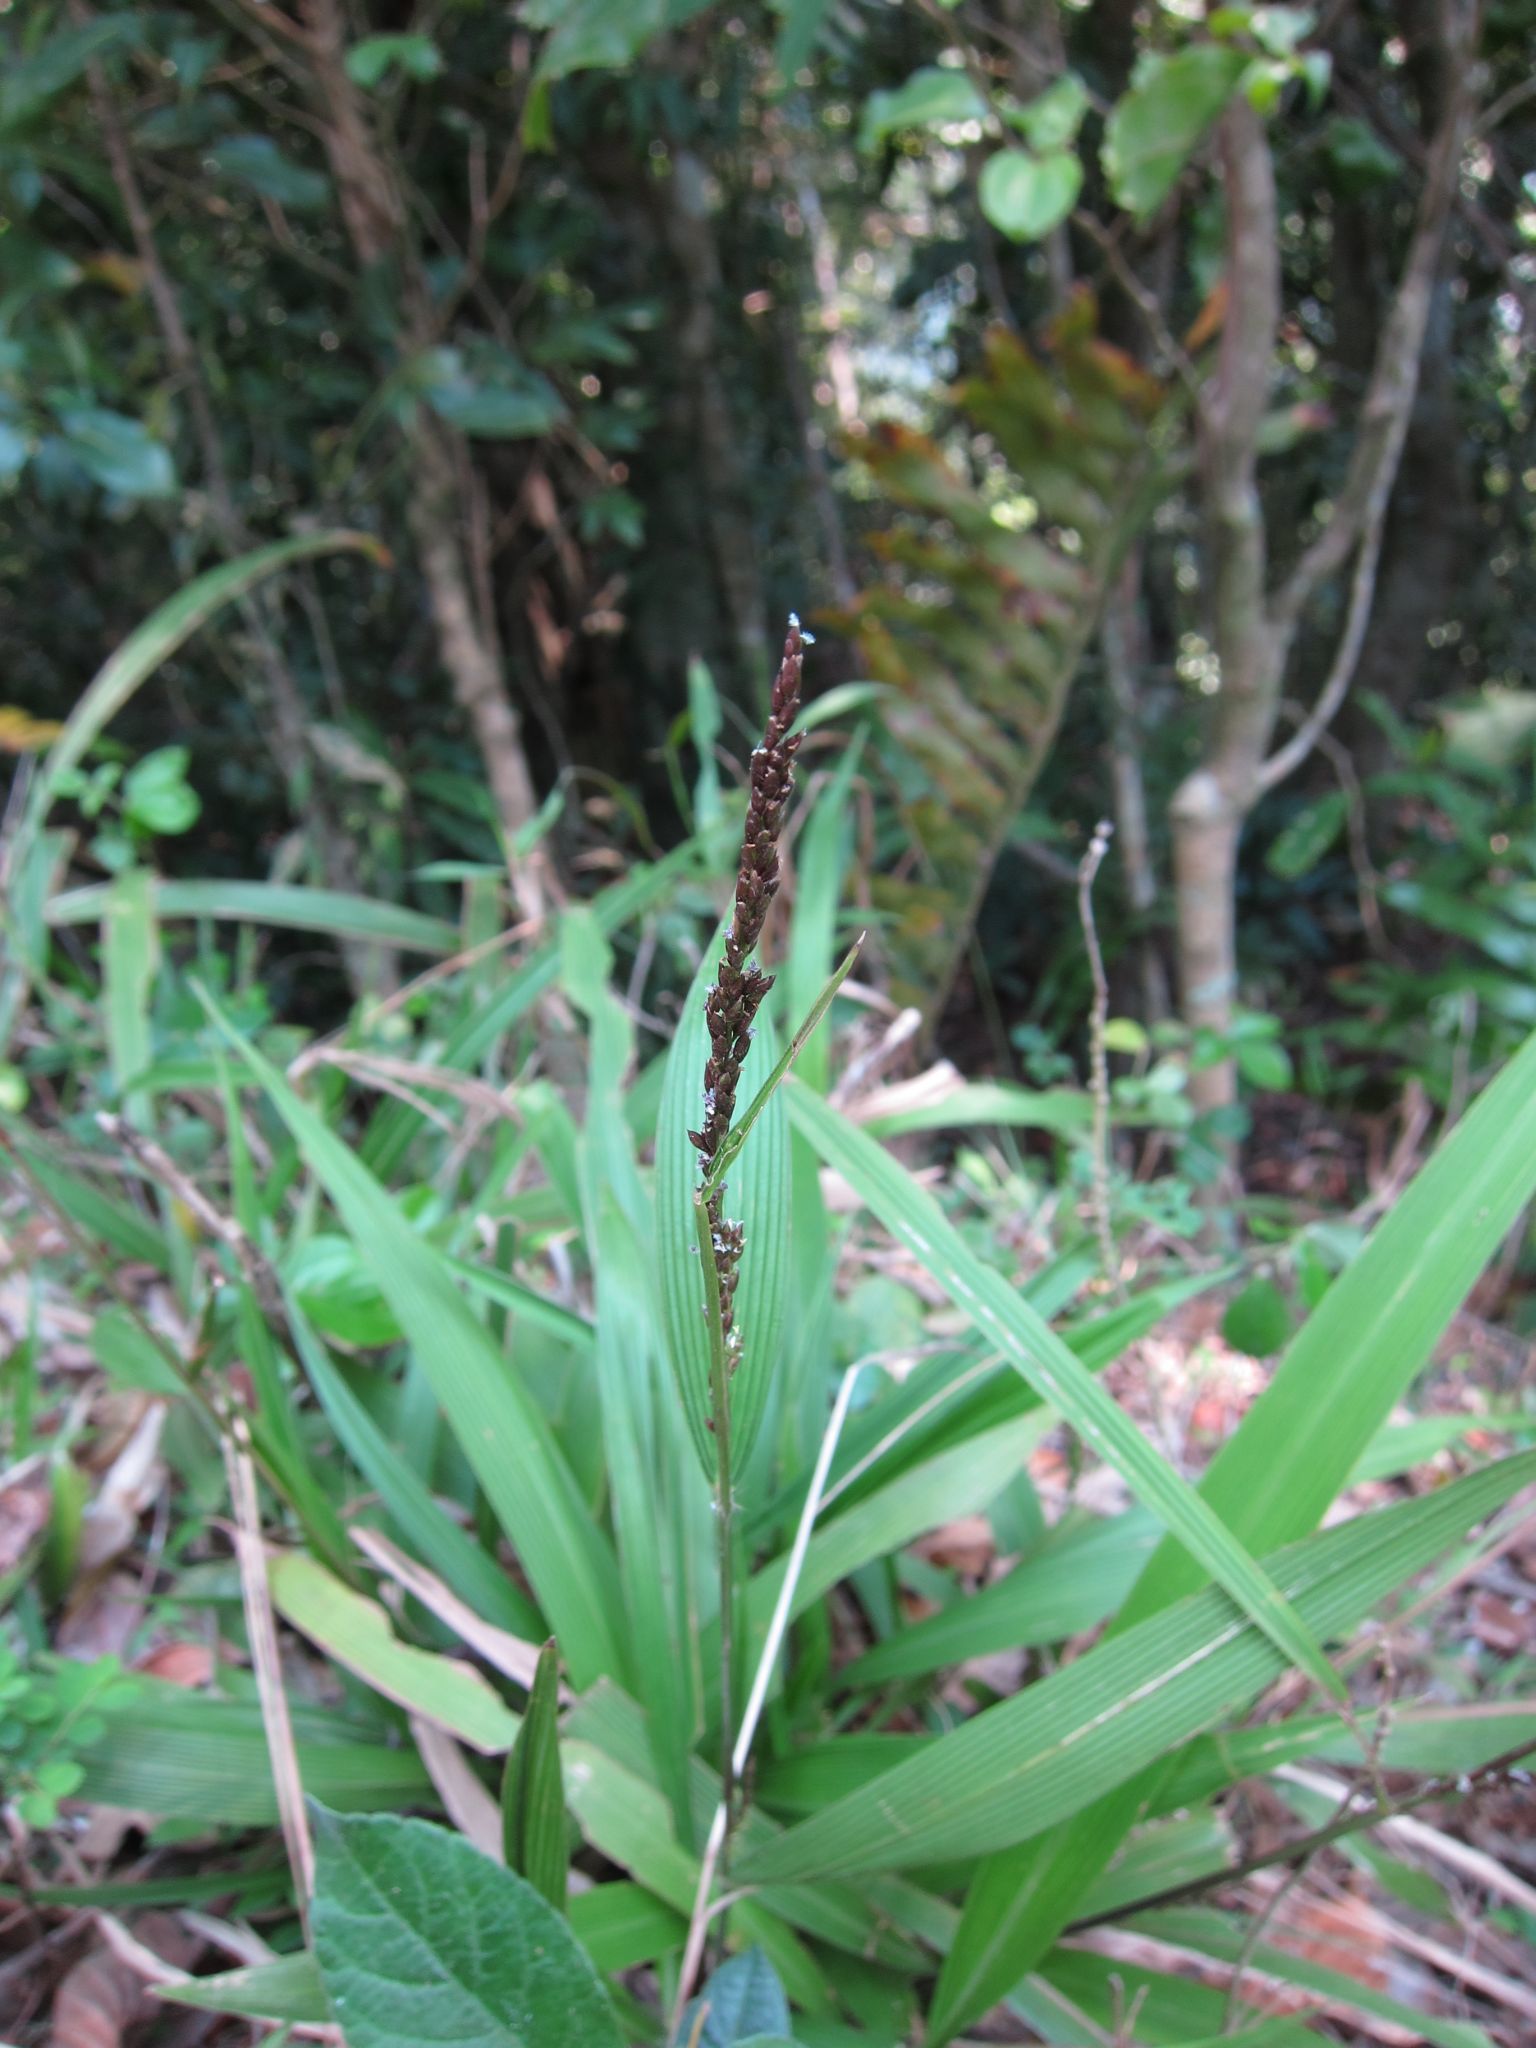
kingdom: Plantae
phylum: Tracheophyta
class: Liliopsida
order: Poales
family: Poaceae
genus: Setaria
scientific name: Setaria megaphylla
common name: Bigleaf bristlegrass
